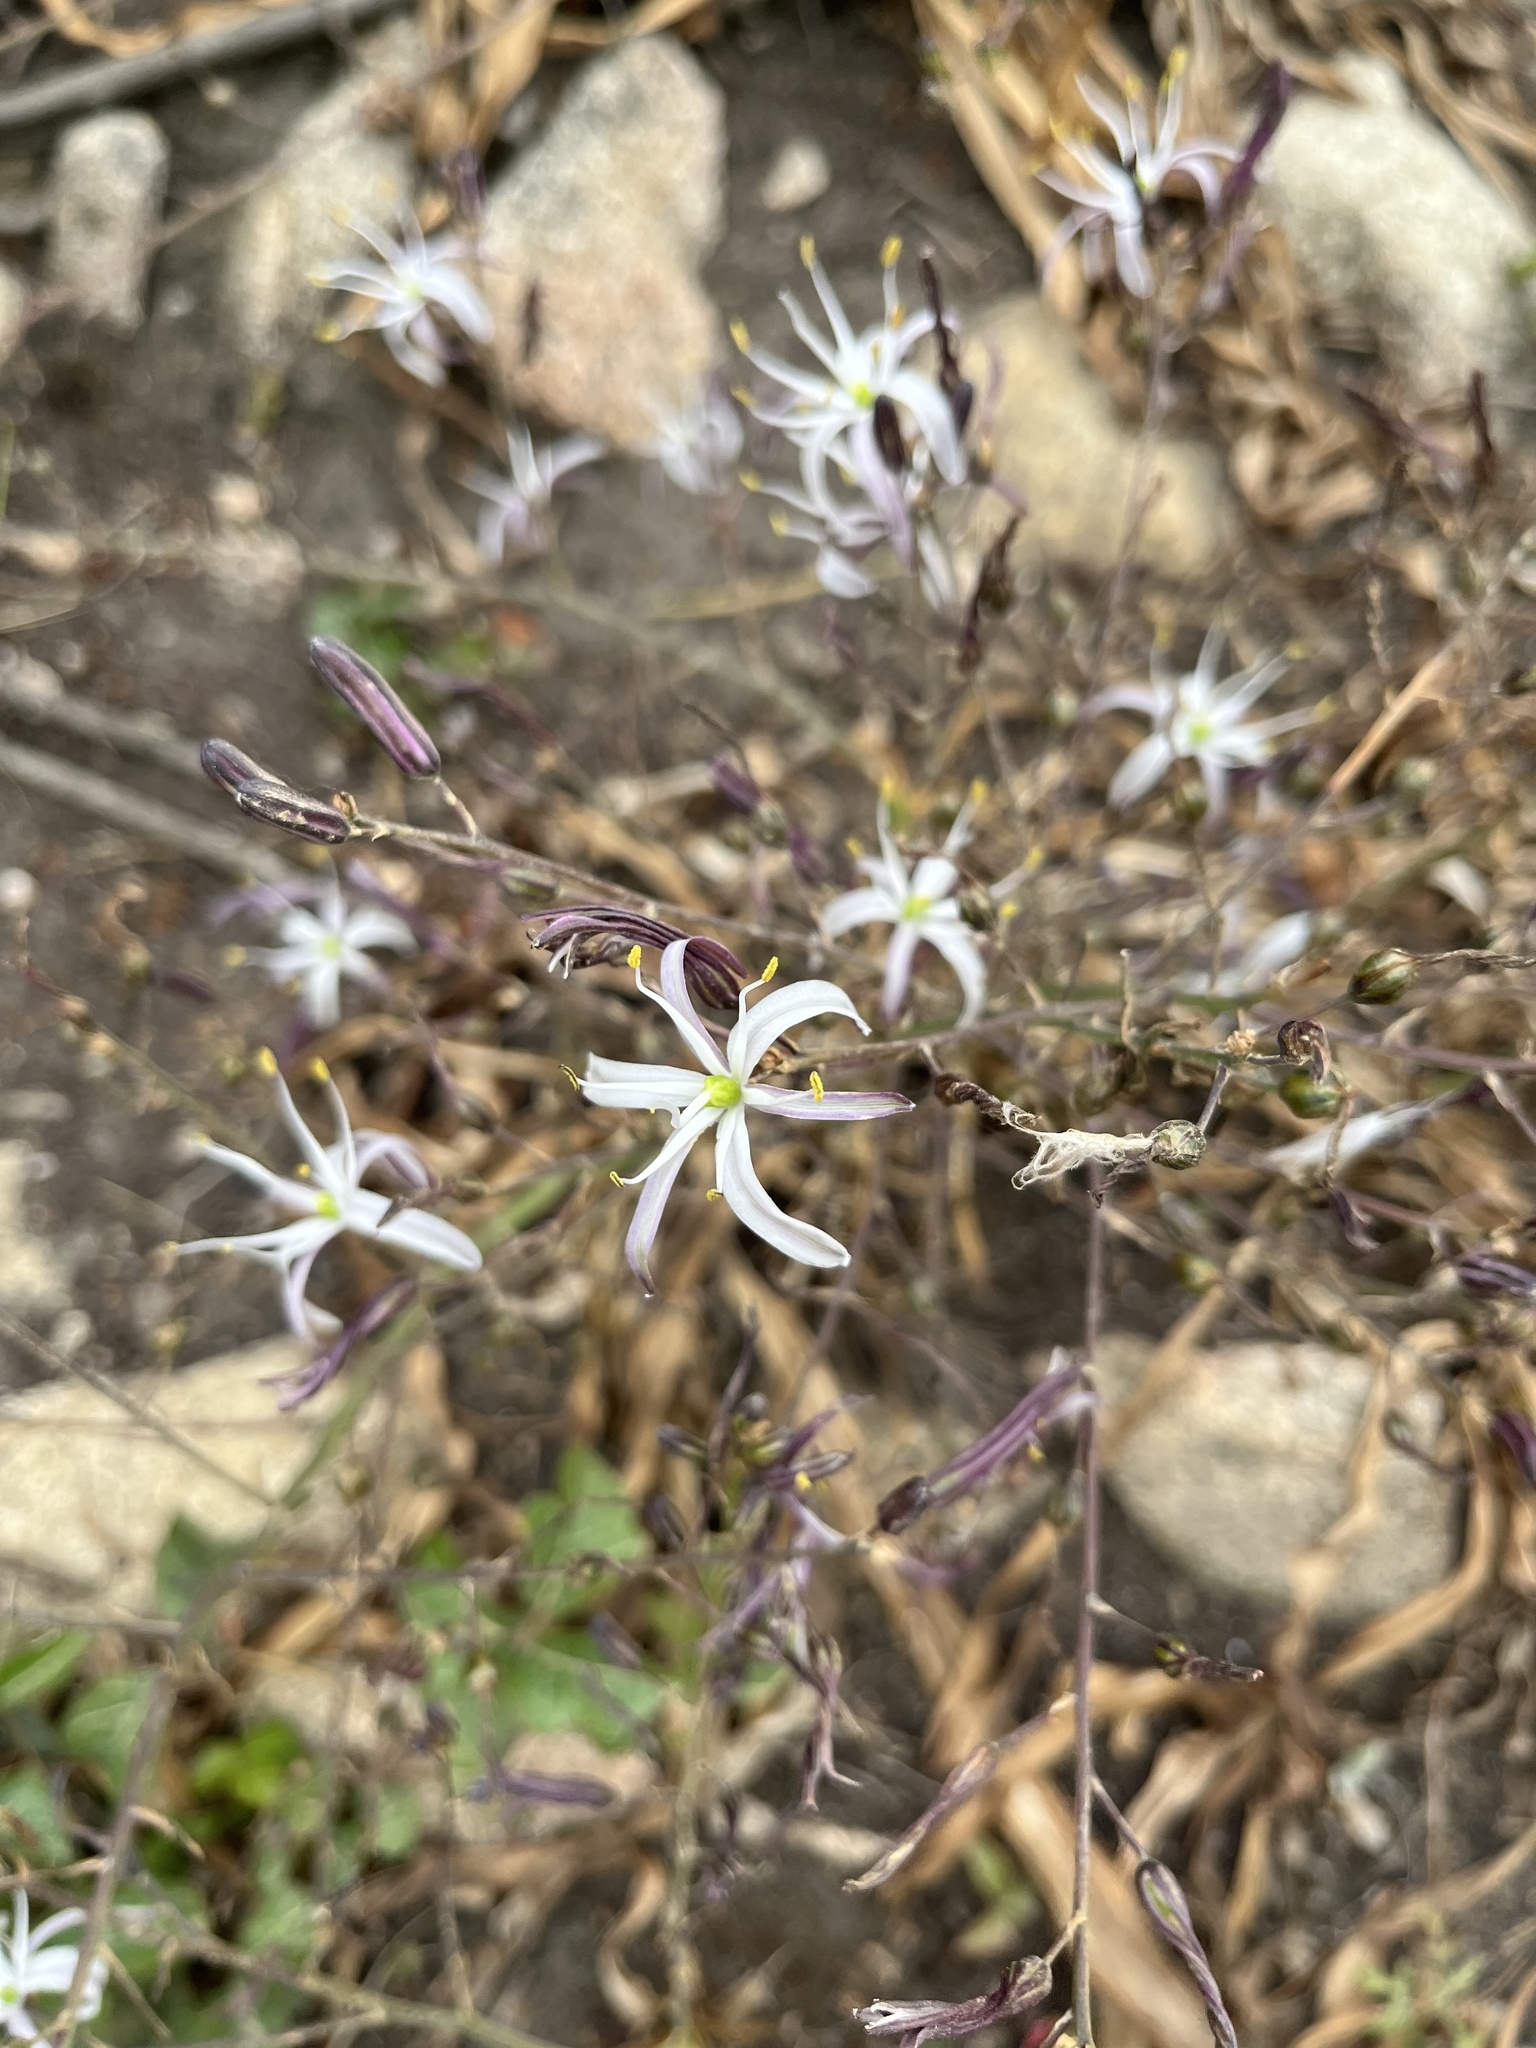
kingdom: Plantae
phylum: Tracheophyta
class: Liliopsida
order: Asparagales
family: Asparagaceae
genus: Chlorogalum
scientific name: Chlorogalum pomeridianum
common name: Amole
